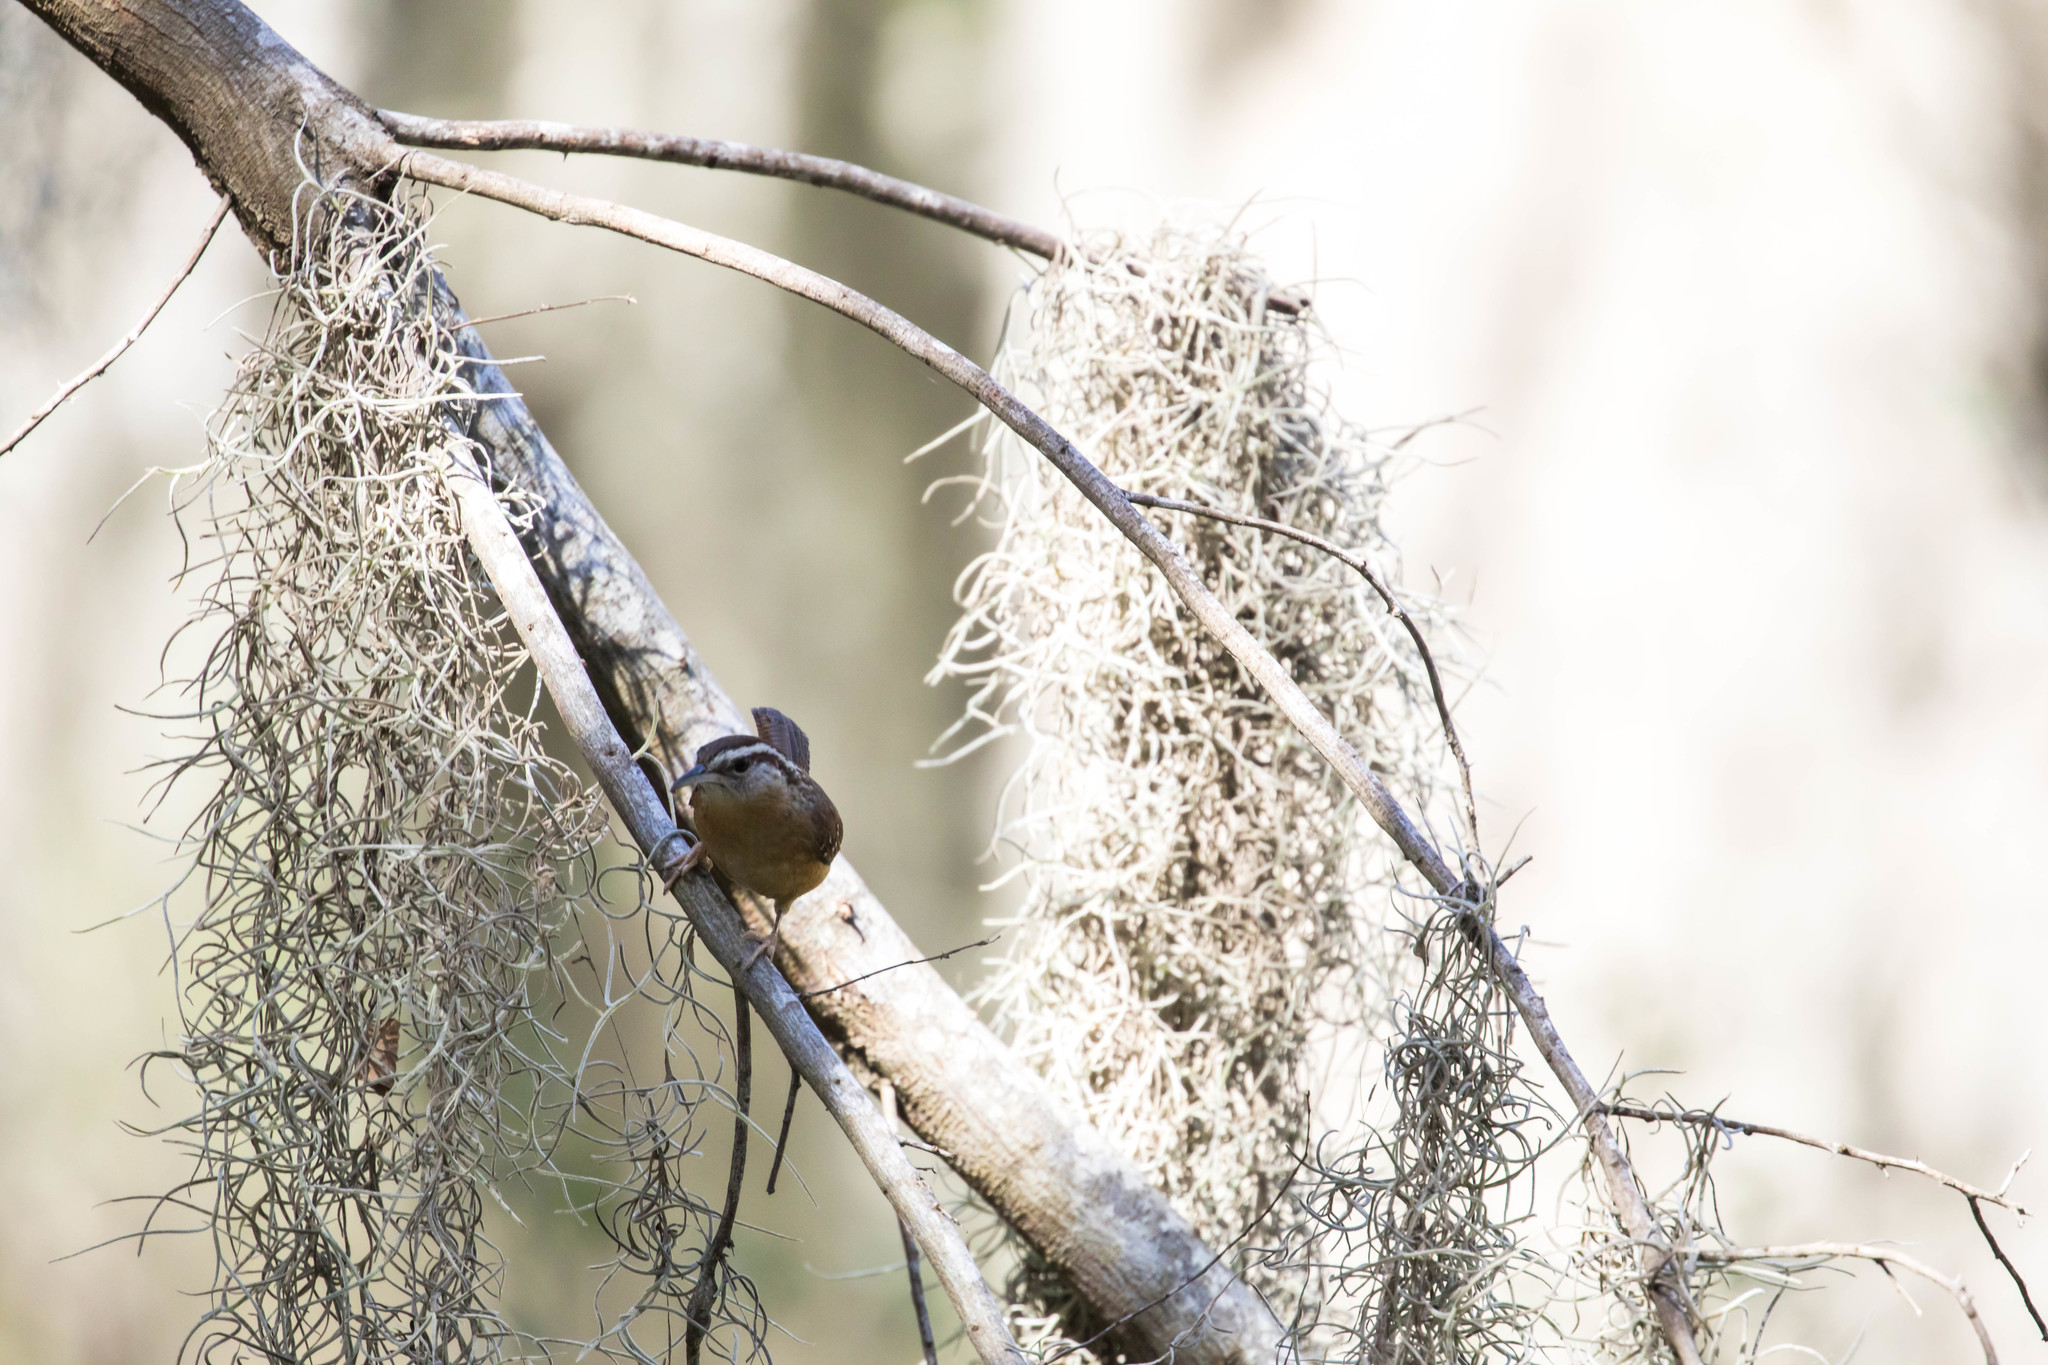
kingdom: Animalia
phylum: Chordata
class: Aves
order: Passeriformes
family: Troglodytidae
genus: Thryothorus
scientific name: Thryothorus ludovicianus
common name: Carolina wren
